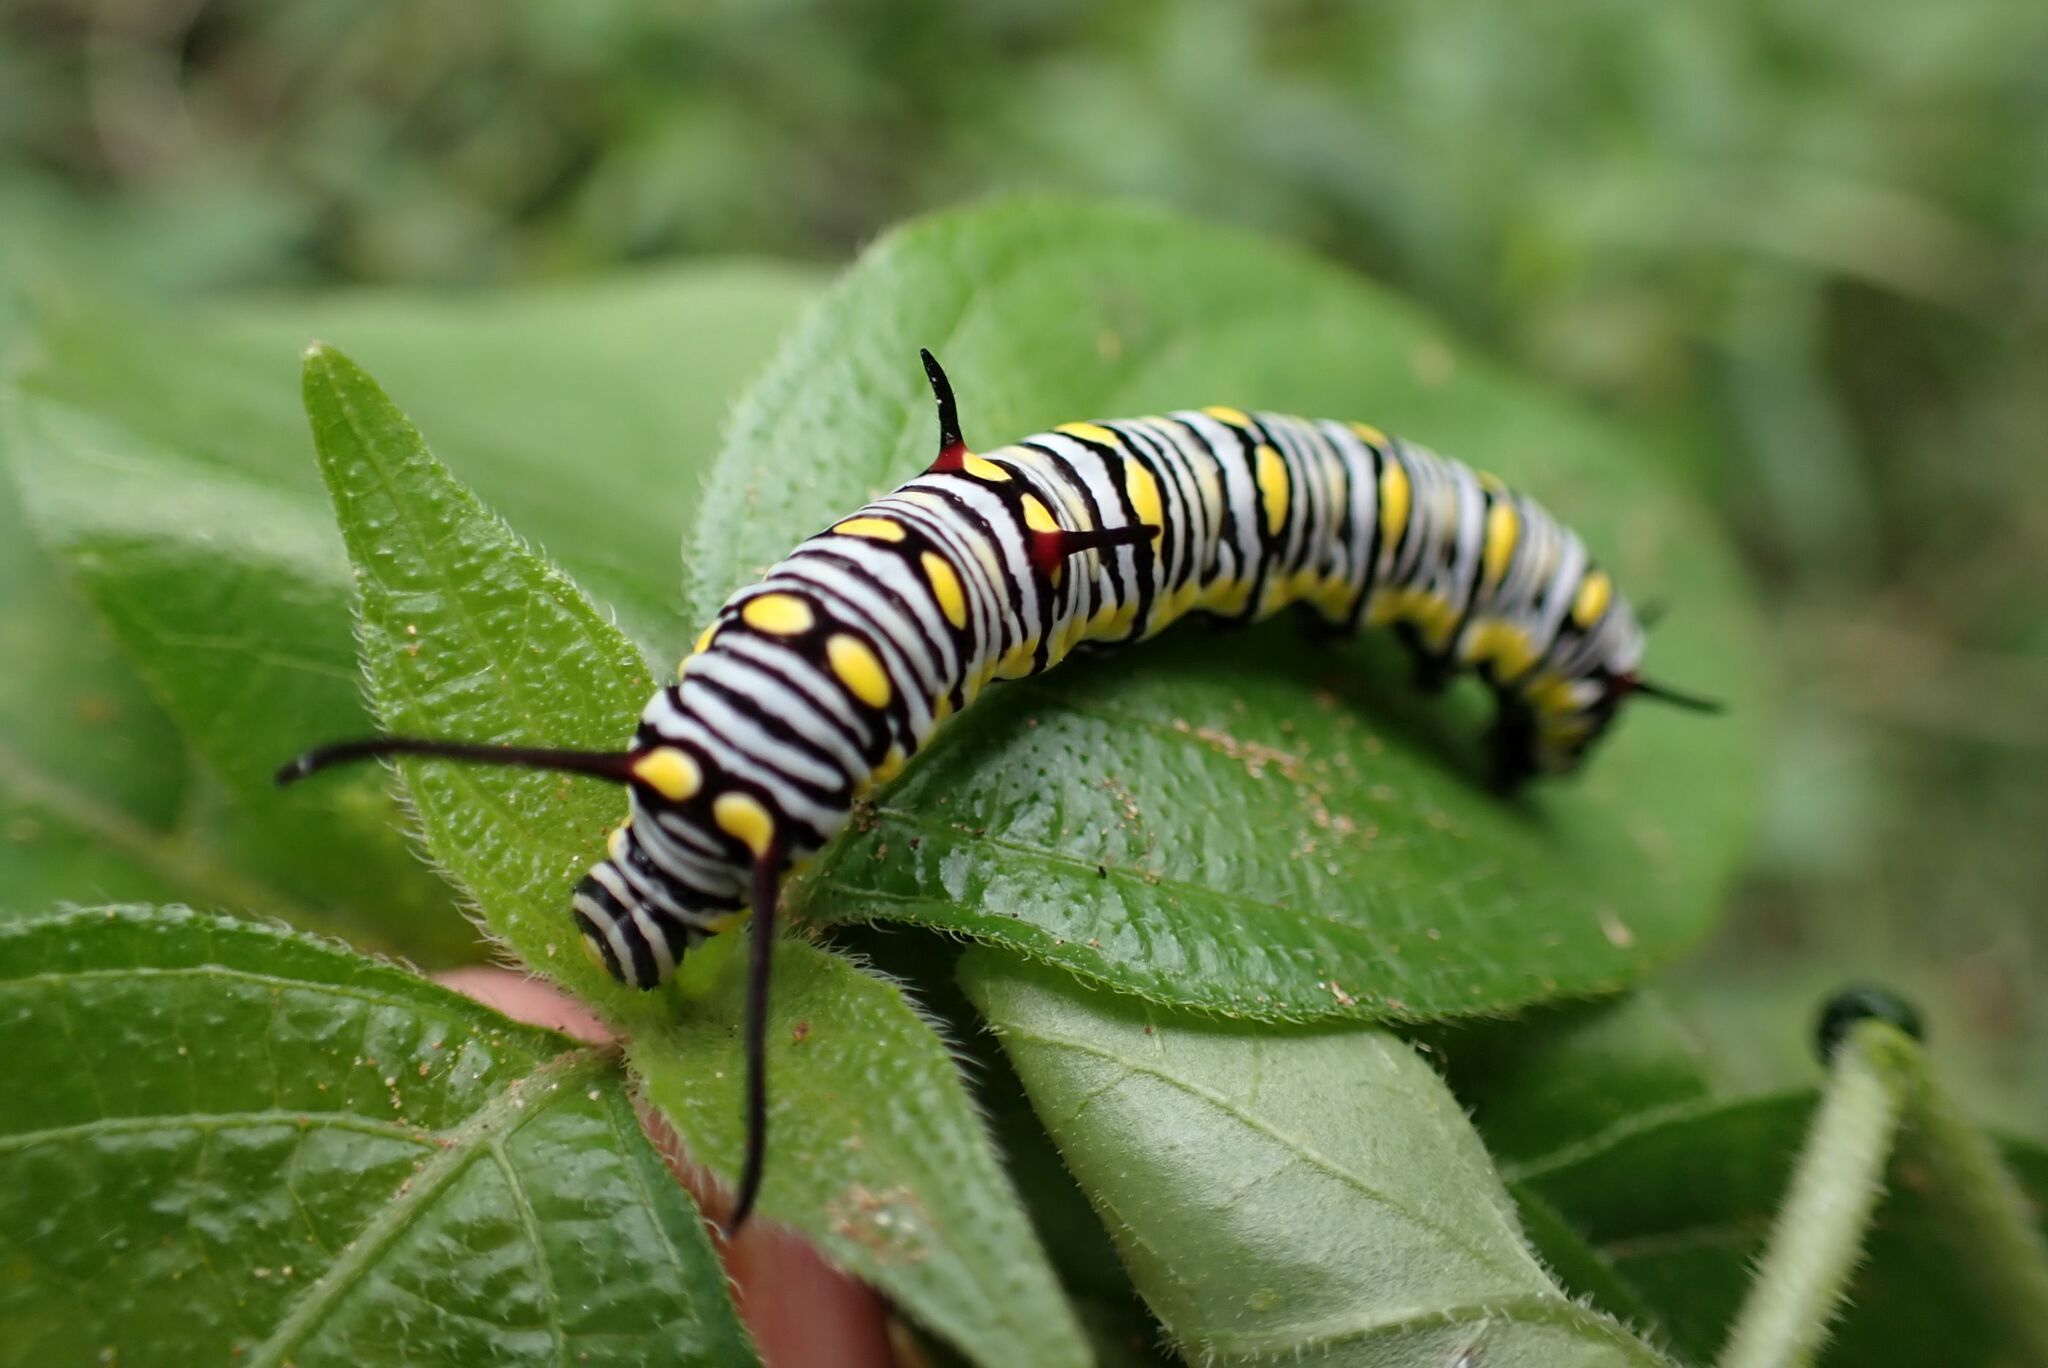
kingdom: Animalia
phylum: Arthropoda
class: Insecta
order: Lepidoptera
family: Nymphalidae
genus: Danaus
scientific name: Danaus chrysippus
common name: Plain tiger
